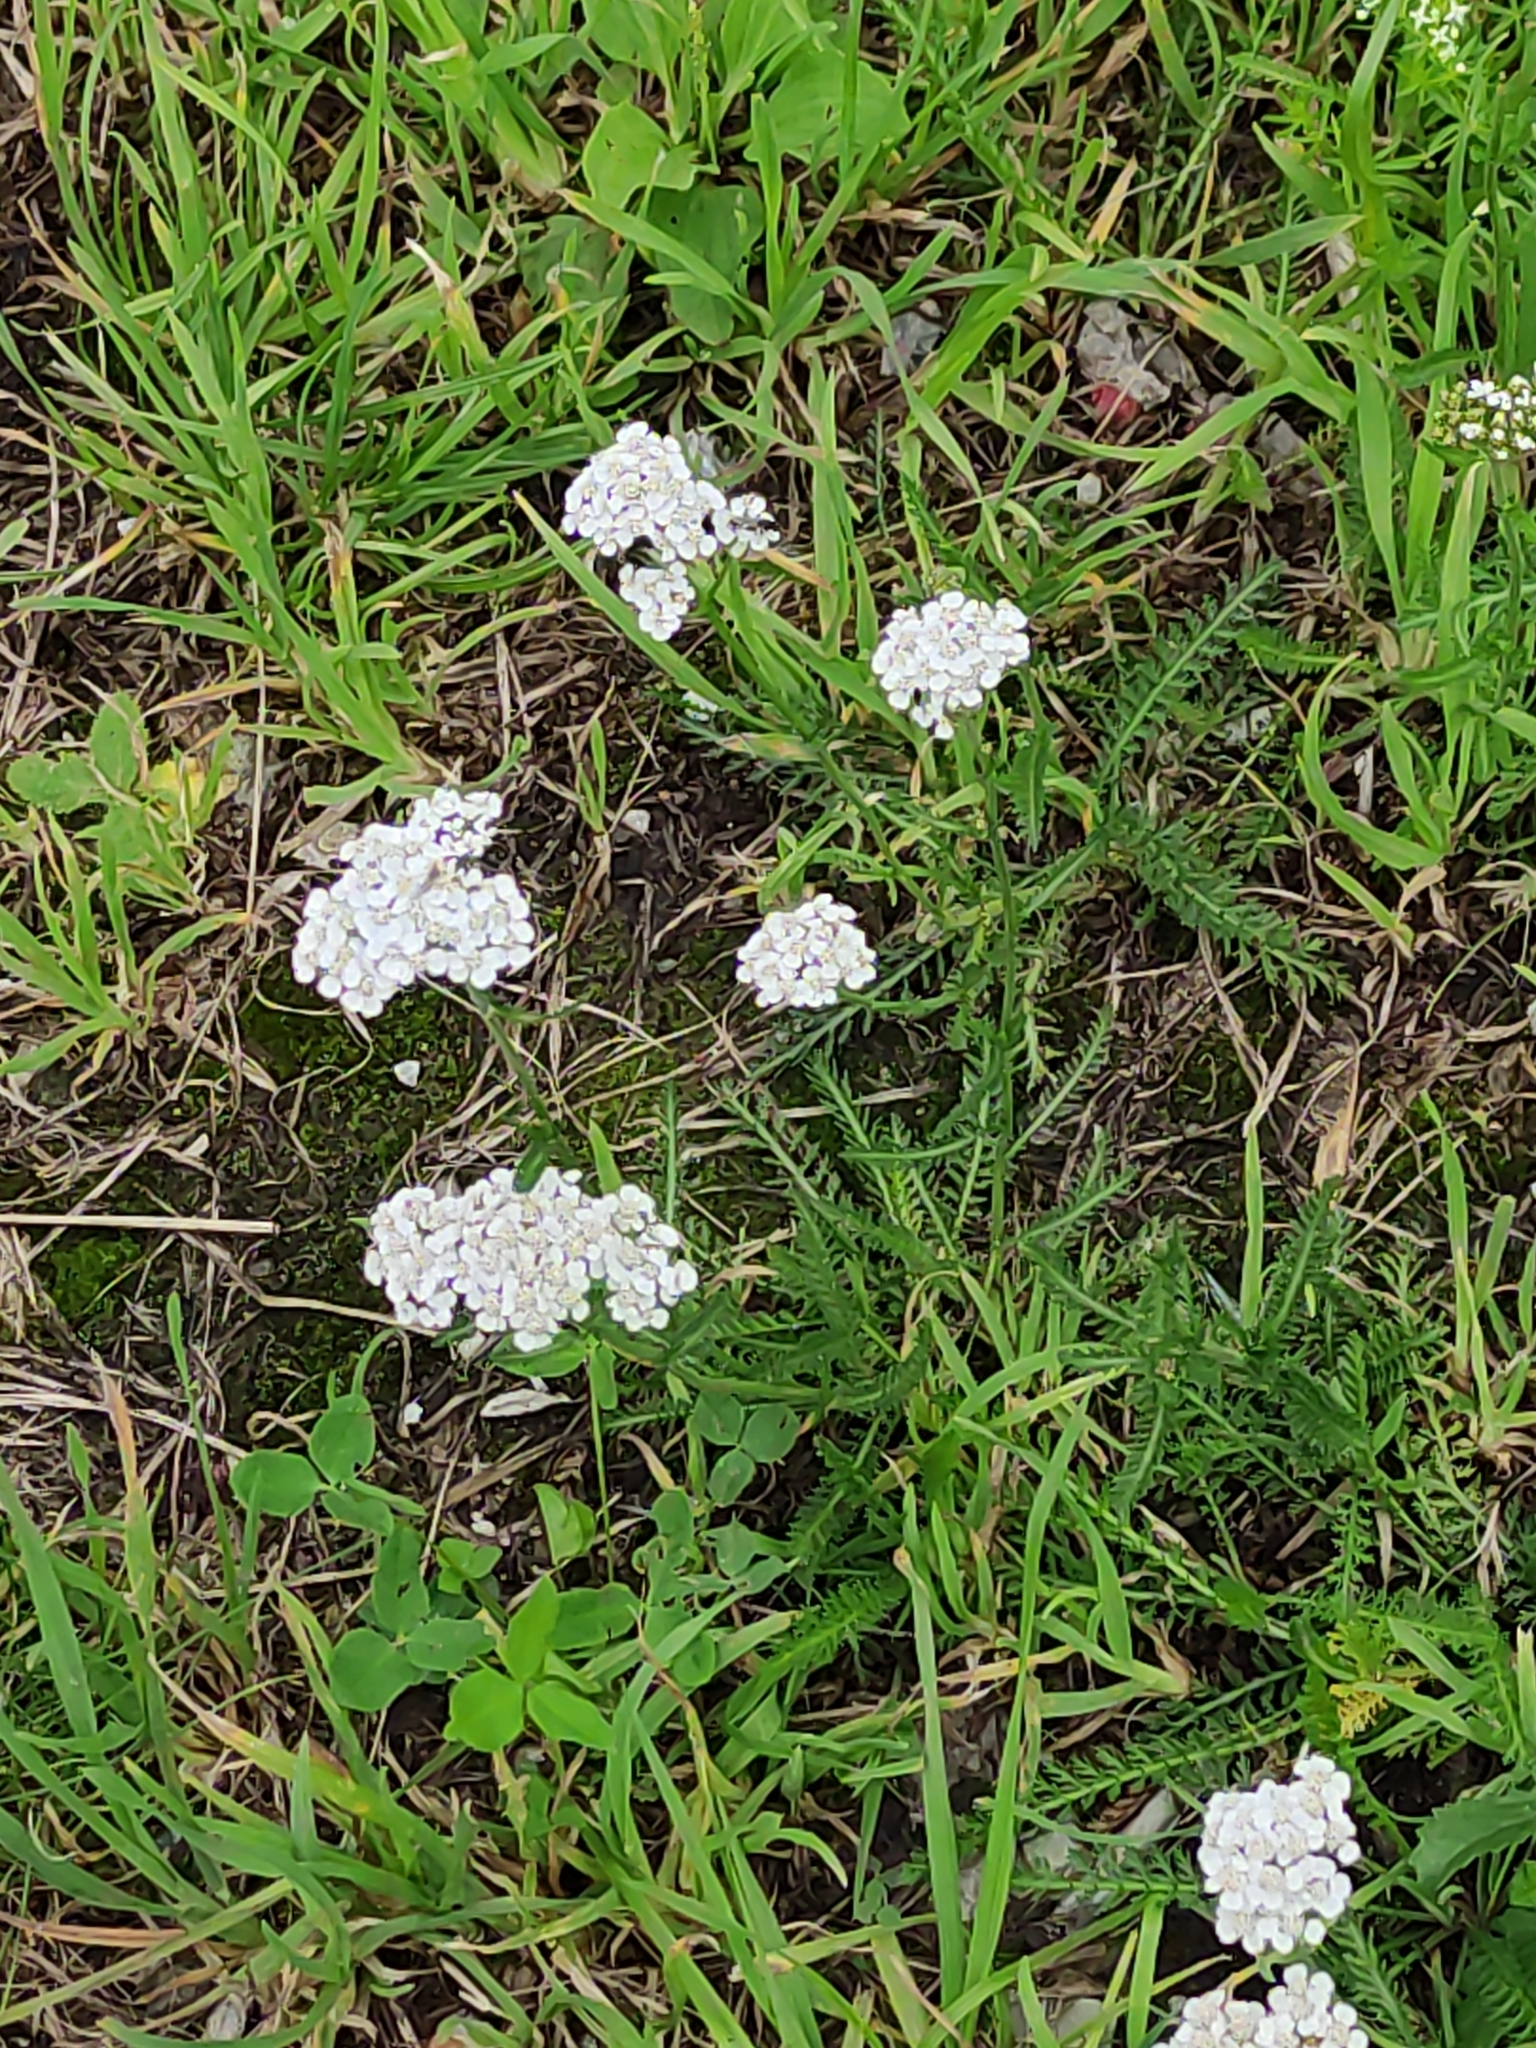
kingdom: Plantae
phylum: Tracheophyta
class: Magnoliopsida
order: Asterales
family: Asteraceae
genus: Achillea
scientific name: Achillea millefolium
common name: Yarrow
